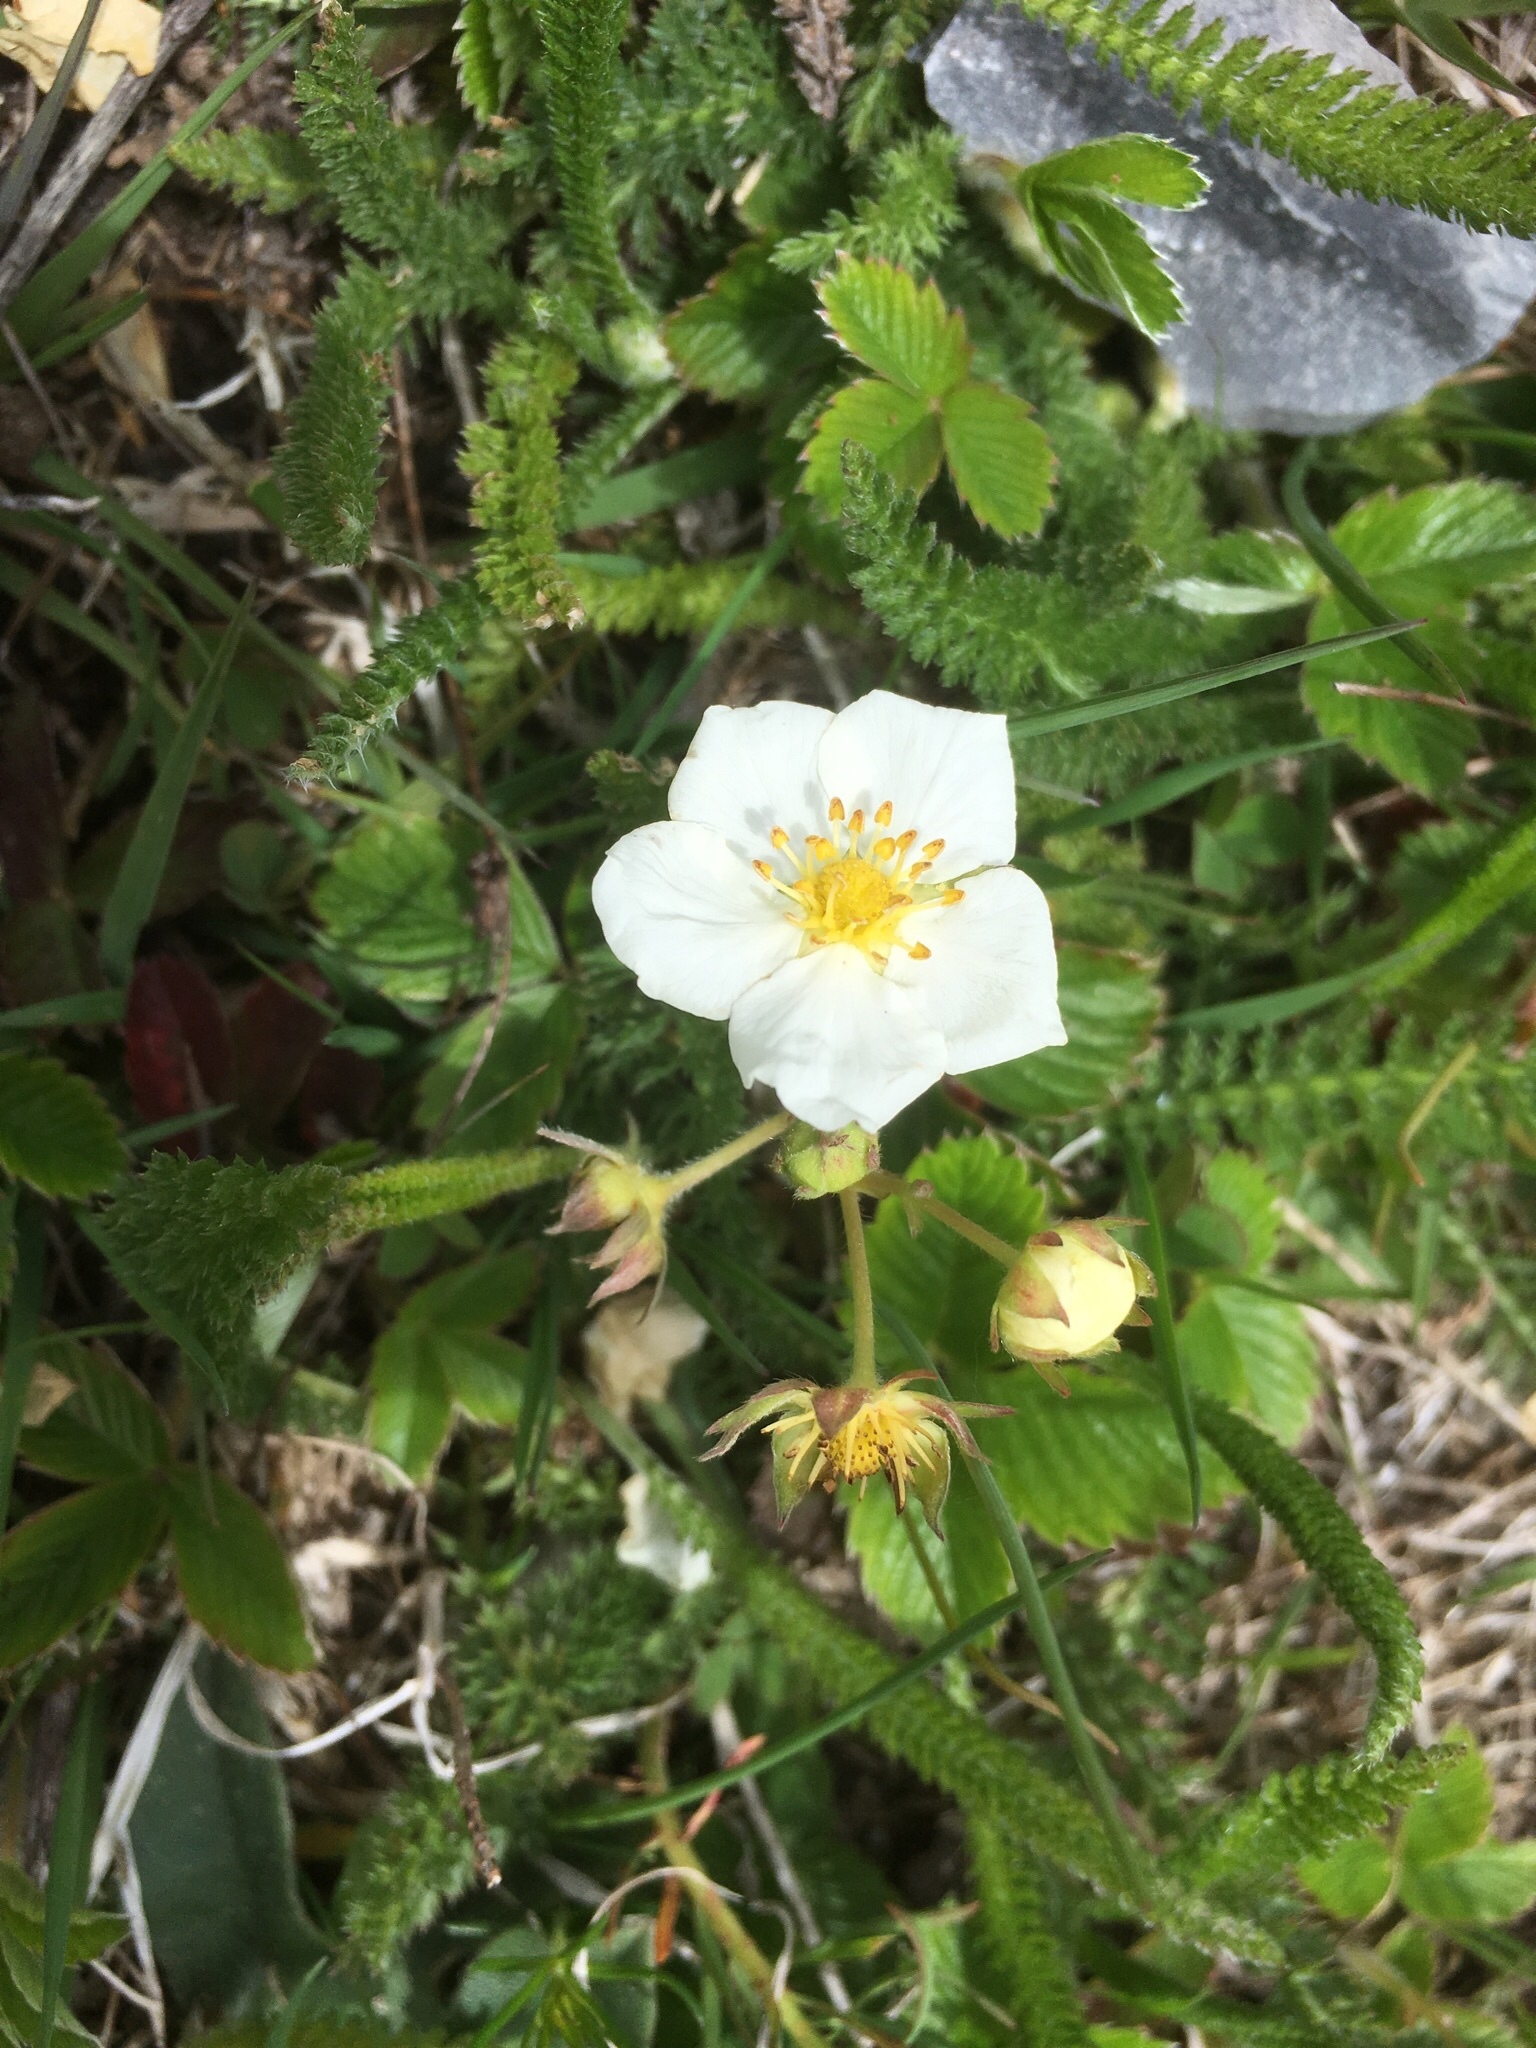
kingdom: Plantae
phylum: Tracheophyta
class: Magnoliopsida
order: Rosales
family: Rosaceae
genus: Fragaria
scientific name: Fragaria viridis
